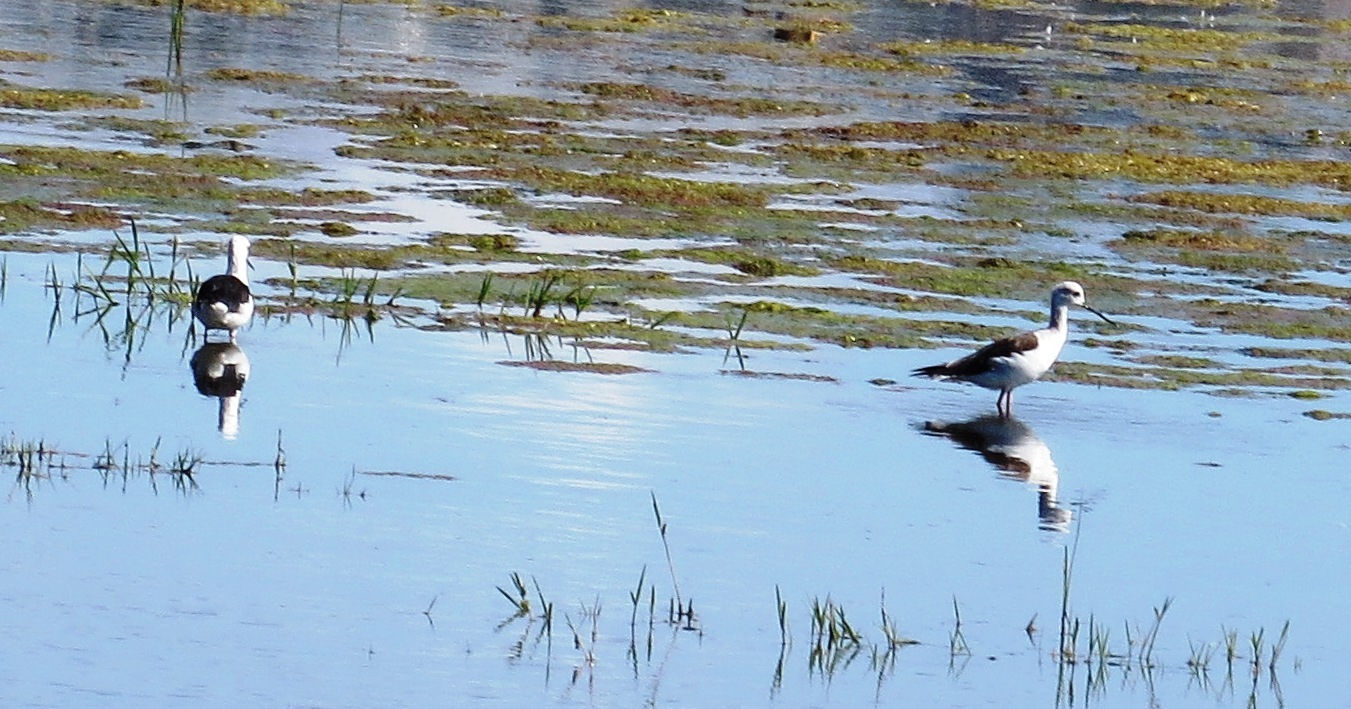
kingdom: Animalia
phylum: Chordata
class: Aves
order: Charadriiformes
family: Recurvirostridae
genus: Himantopus
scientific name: Himantopus himantopus
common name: Black-winged stilt
